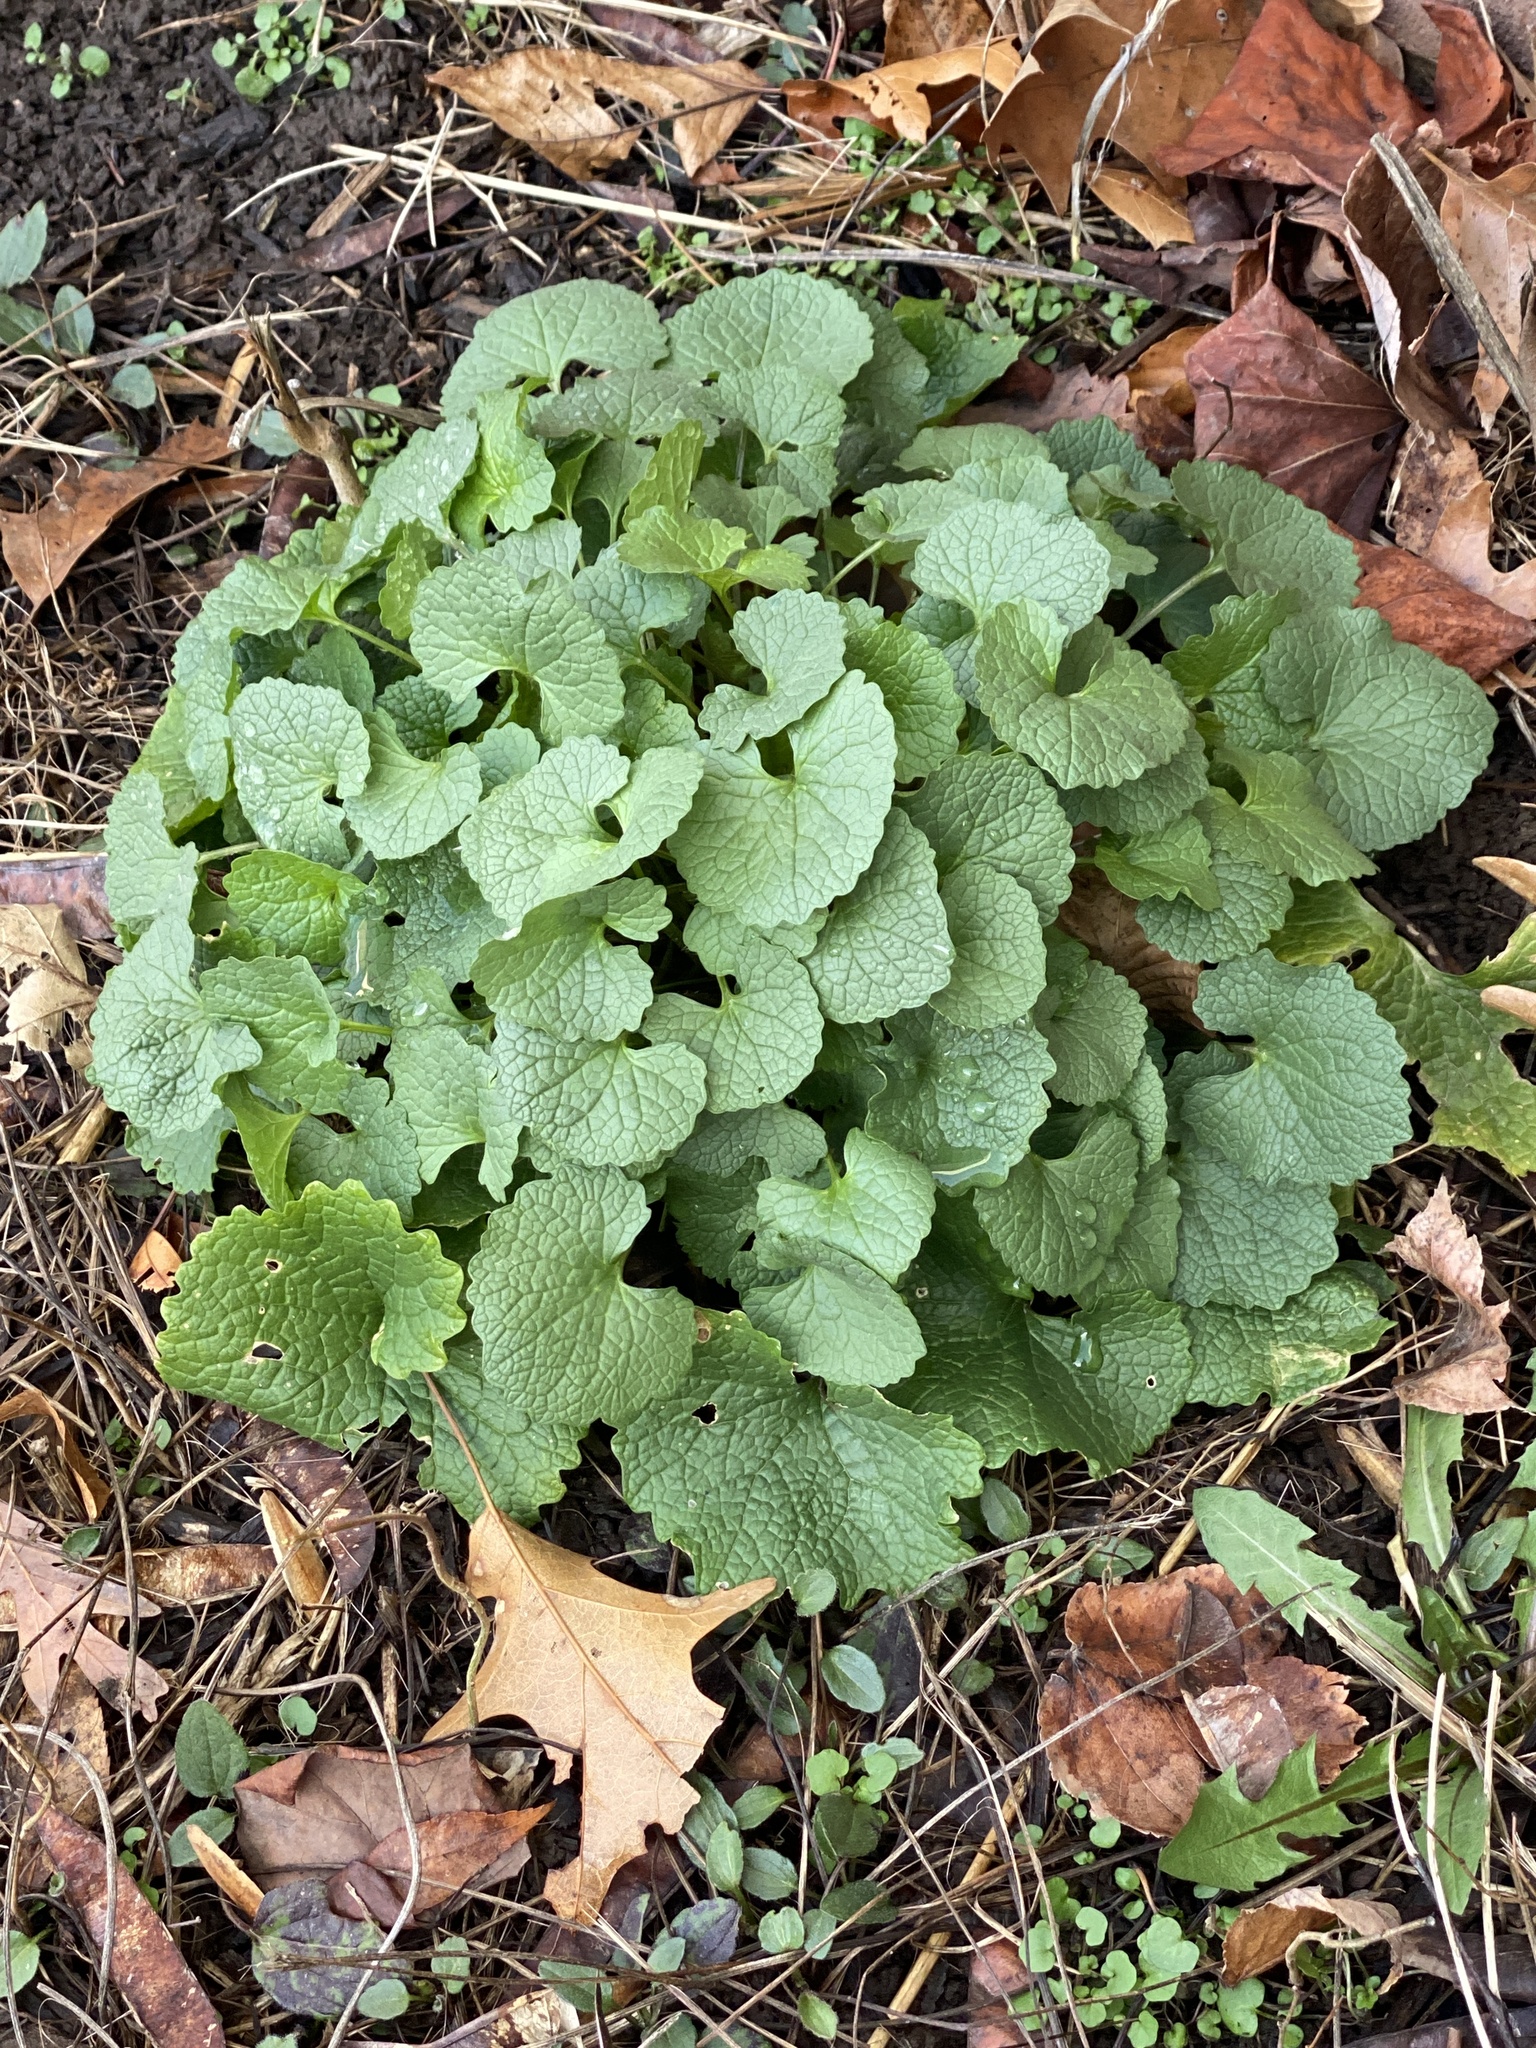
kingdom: Plantae
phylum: Tracheophyta
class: Magnoliopsida
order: Brassicales
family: Brassicaceae
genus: Alliaria
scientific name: Alliaria petiolata
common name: Garlic mustard
